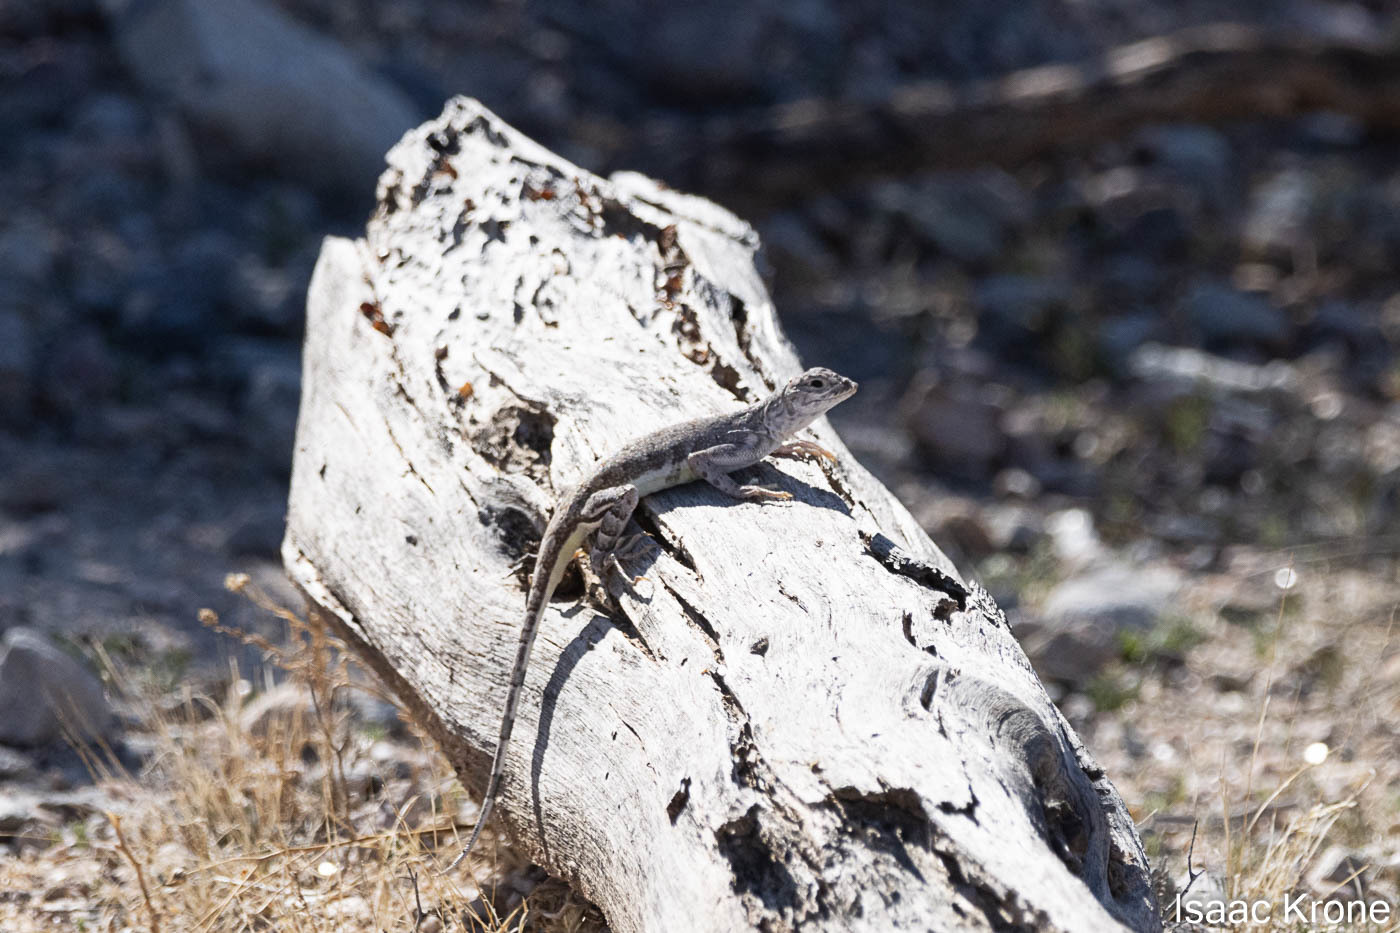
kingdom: Animalia
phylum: Chordata
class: Squamata
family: Phrynosomatidae
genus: Callisaurus
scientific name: Callisaurus draconoides
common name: Zebra-tailed lizard
